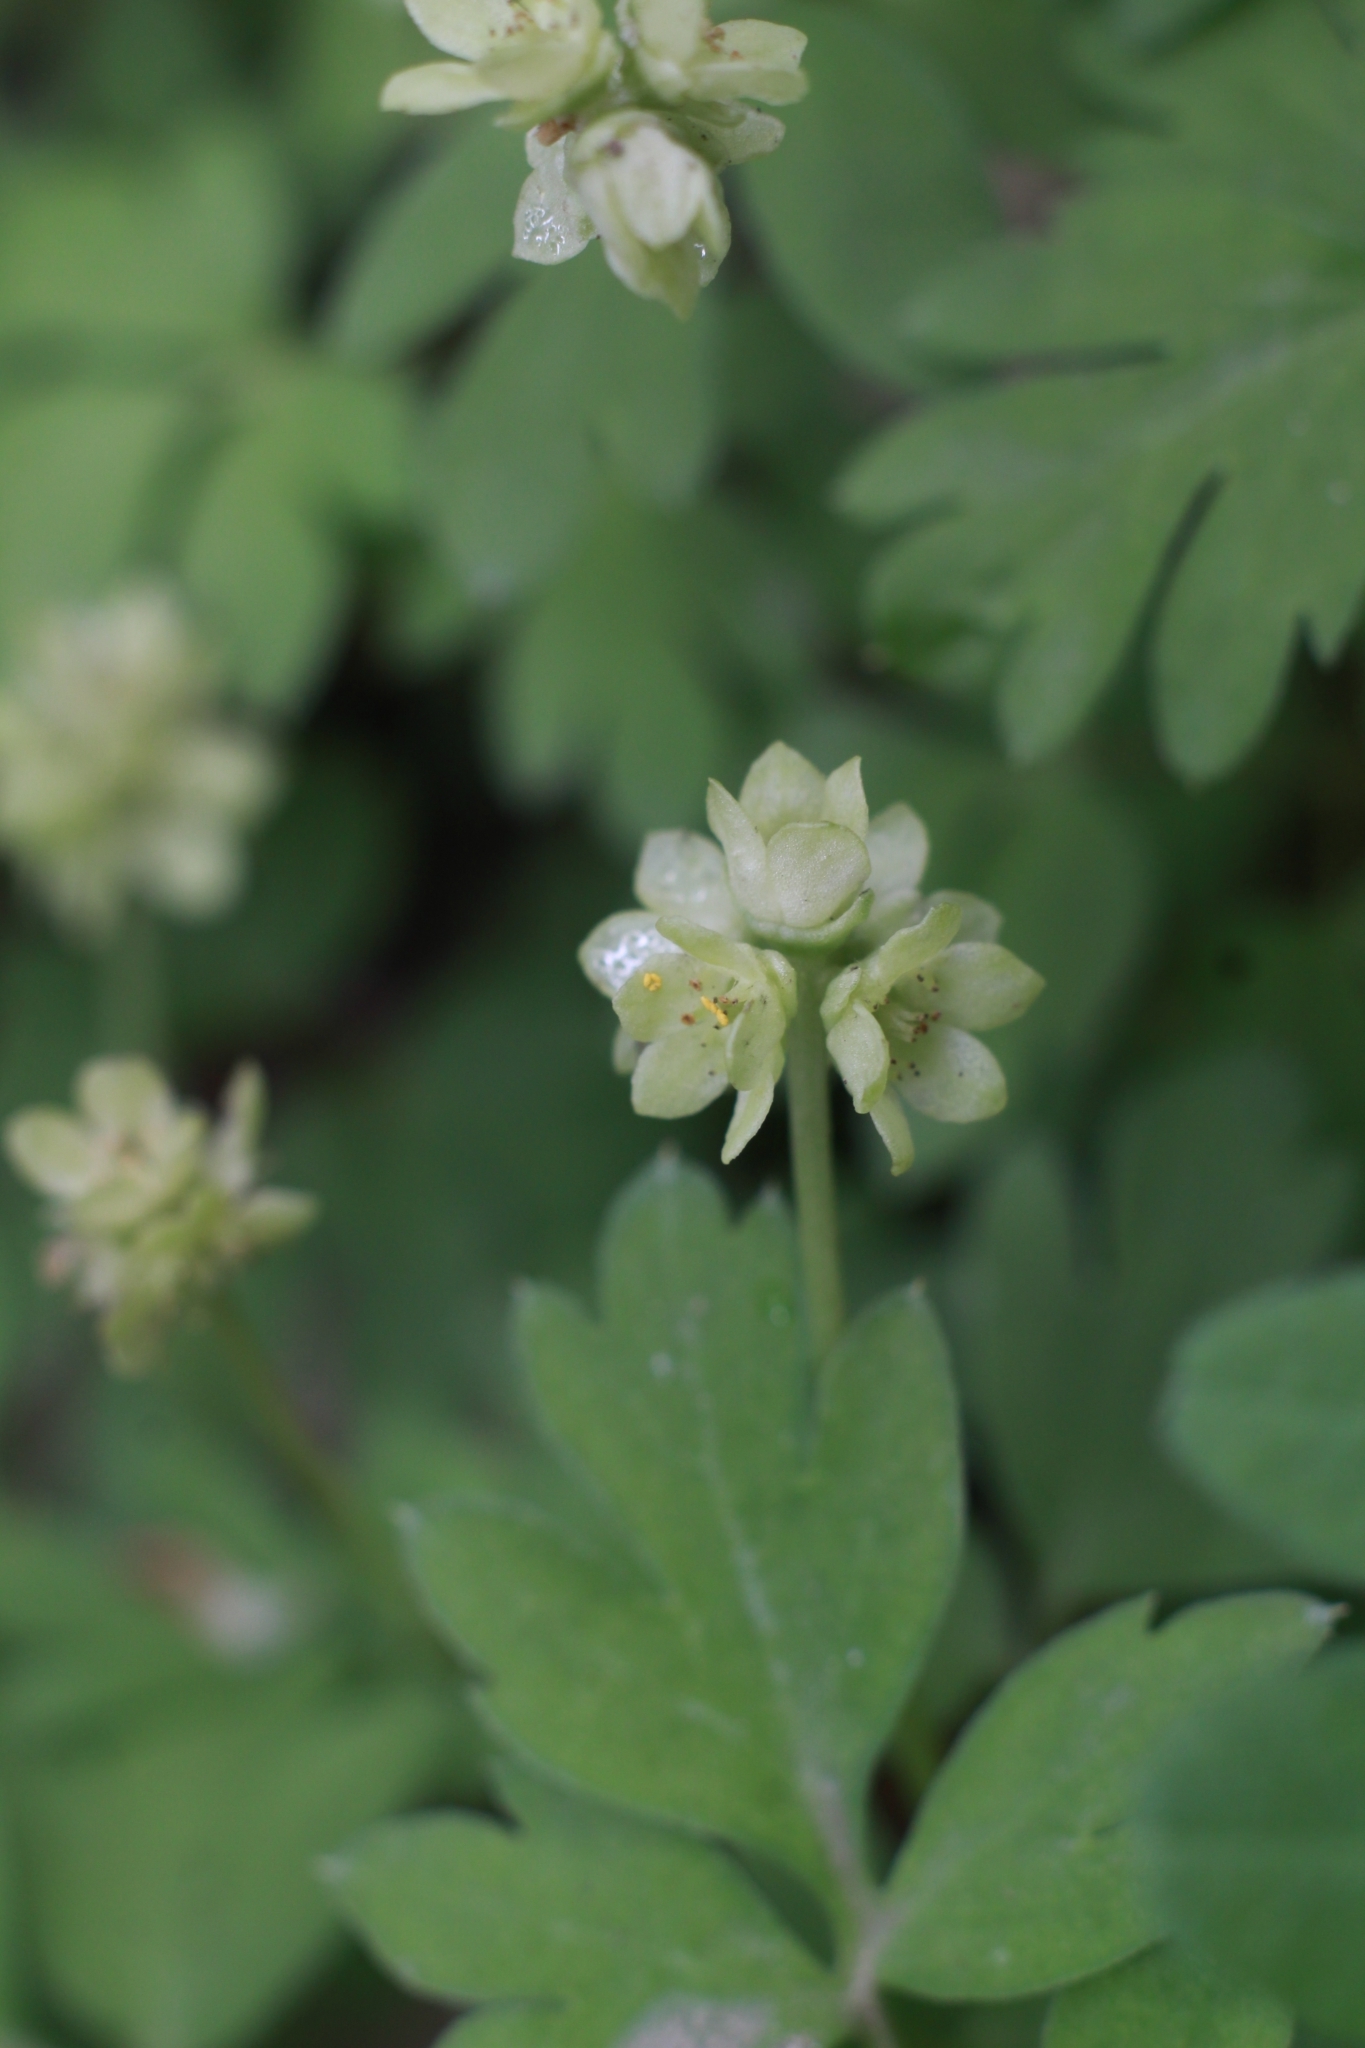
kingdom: Plantae
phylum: Tracheophyta
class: Magnoliopsida
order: Dipsacales
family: Viburnaceae
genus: Adoxa
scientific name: Adoxa moschatellina
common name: Moschatel
